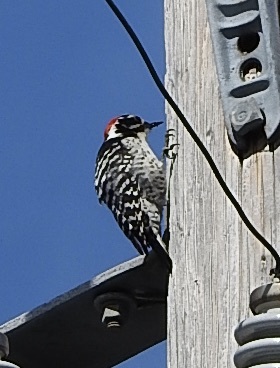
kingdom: Animalia
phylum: Chordata
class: Aves
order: Piciformes
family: Picidae
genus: Dryobates
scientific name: Dryobates nuttallii
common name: Nuttall's woodpecker
